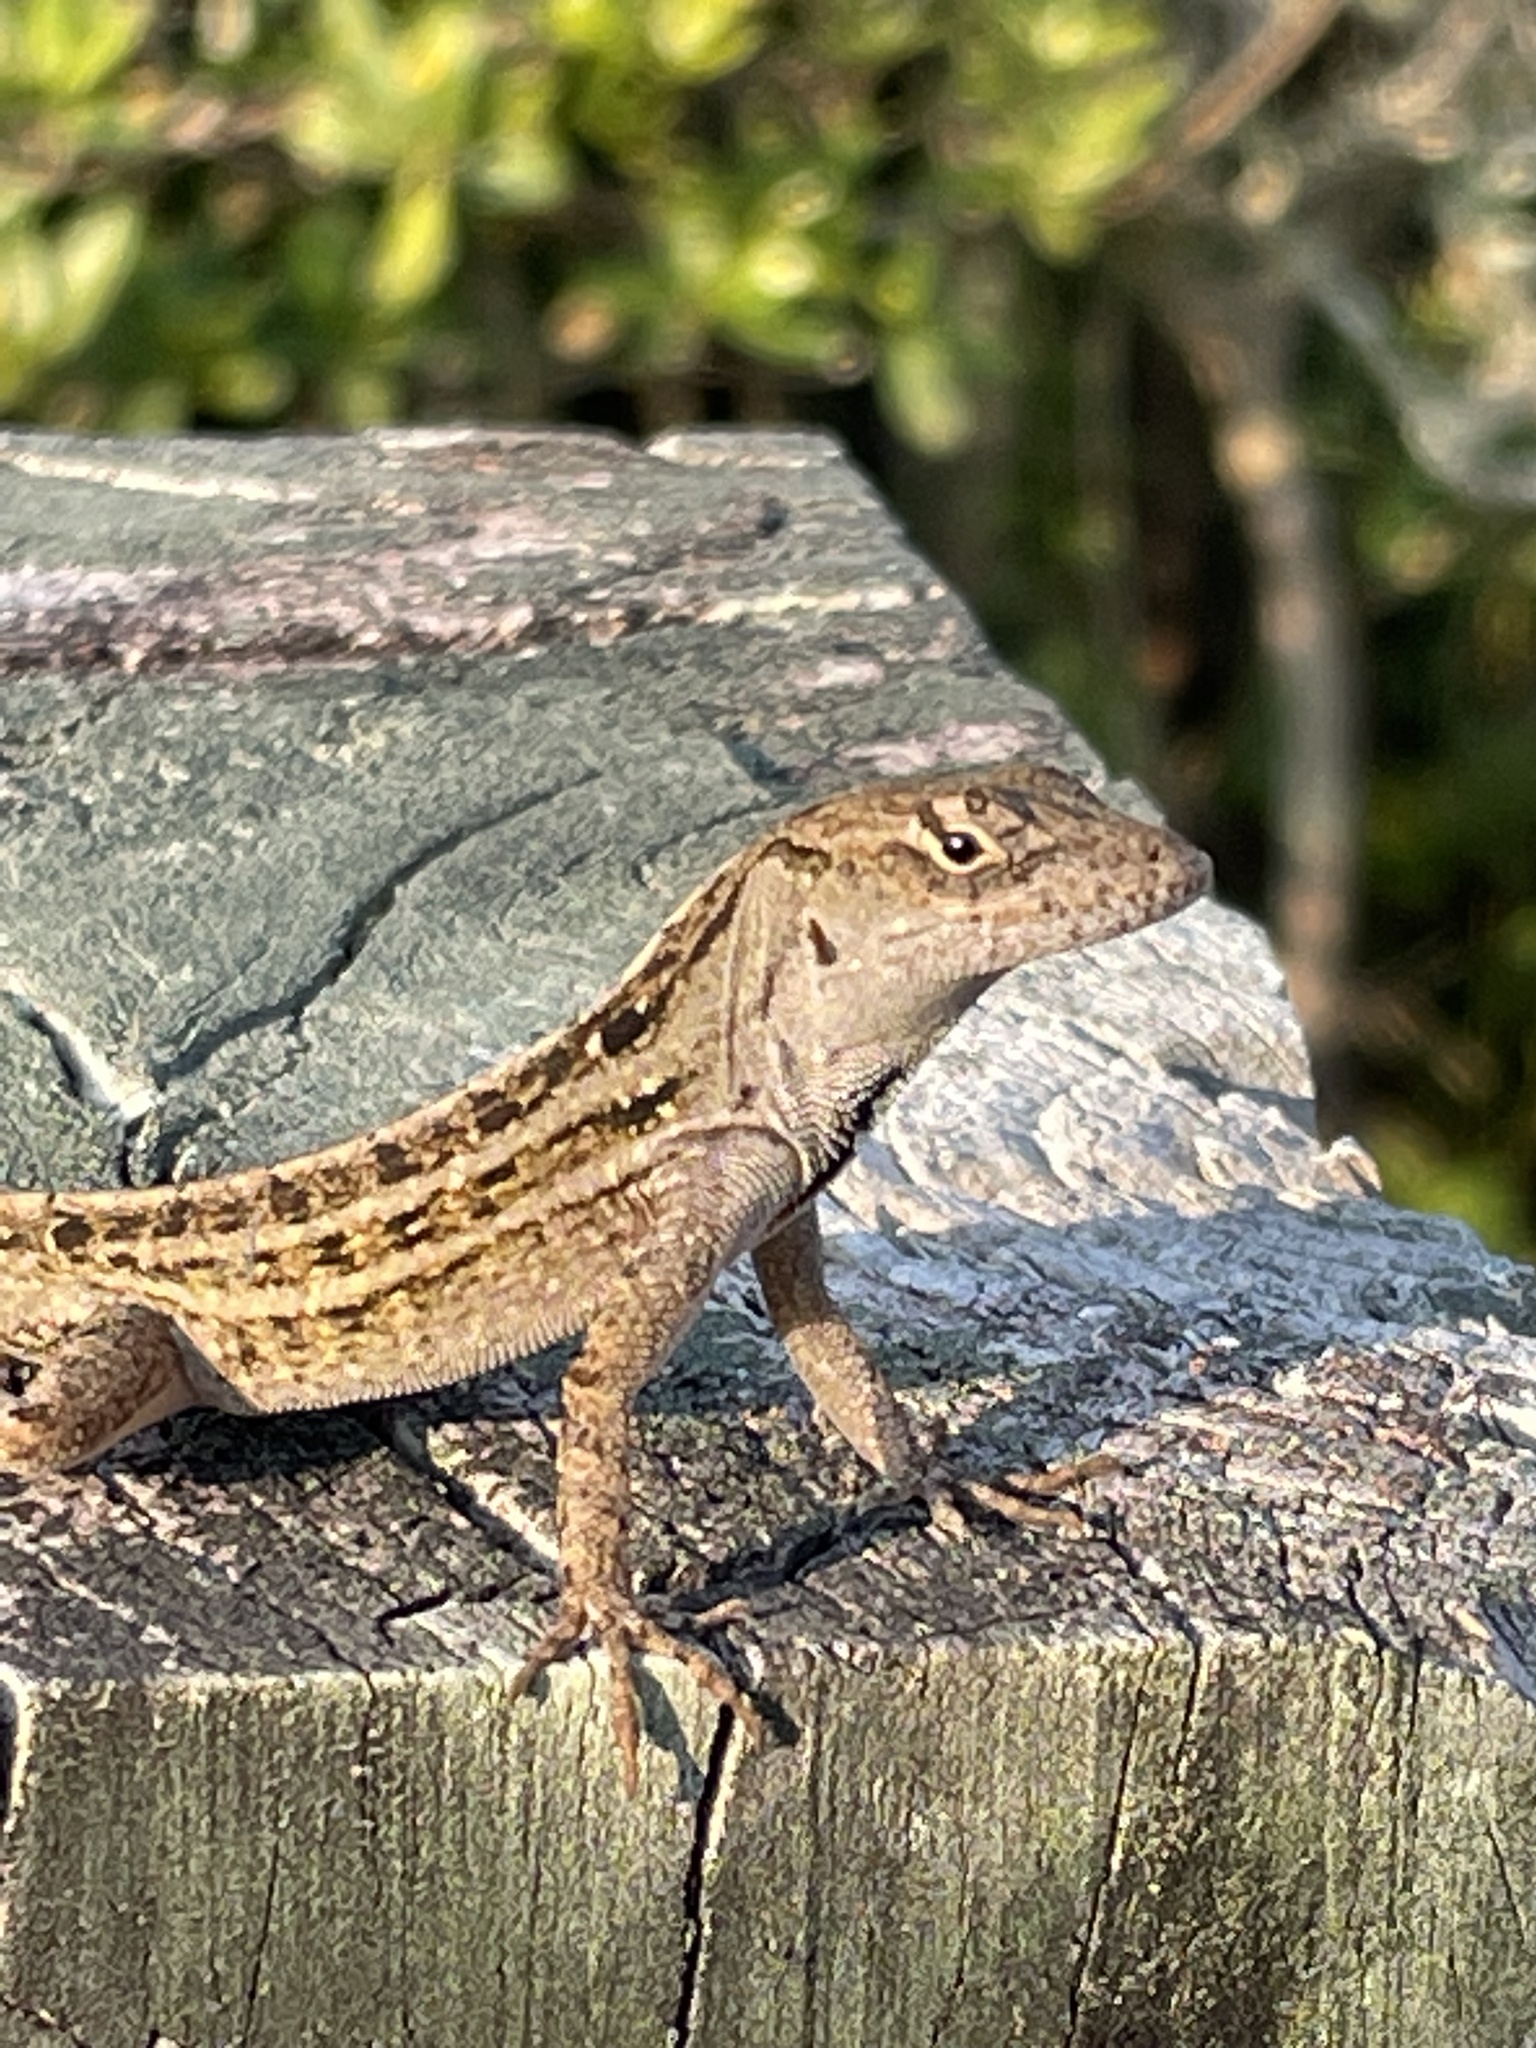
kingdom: Animalia
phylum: Chordata
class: Squamata
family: Dactyloidae
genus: Anolis
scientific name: Anolis sagrei
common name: Brown anole
